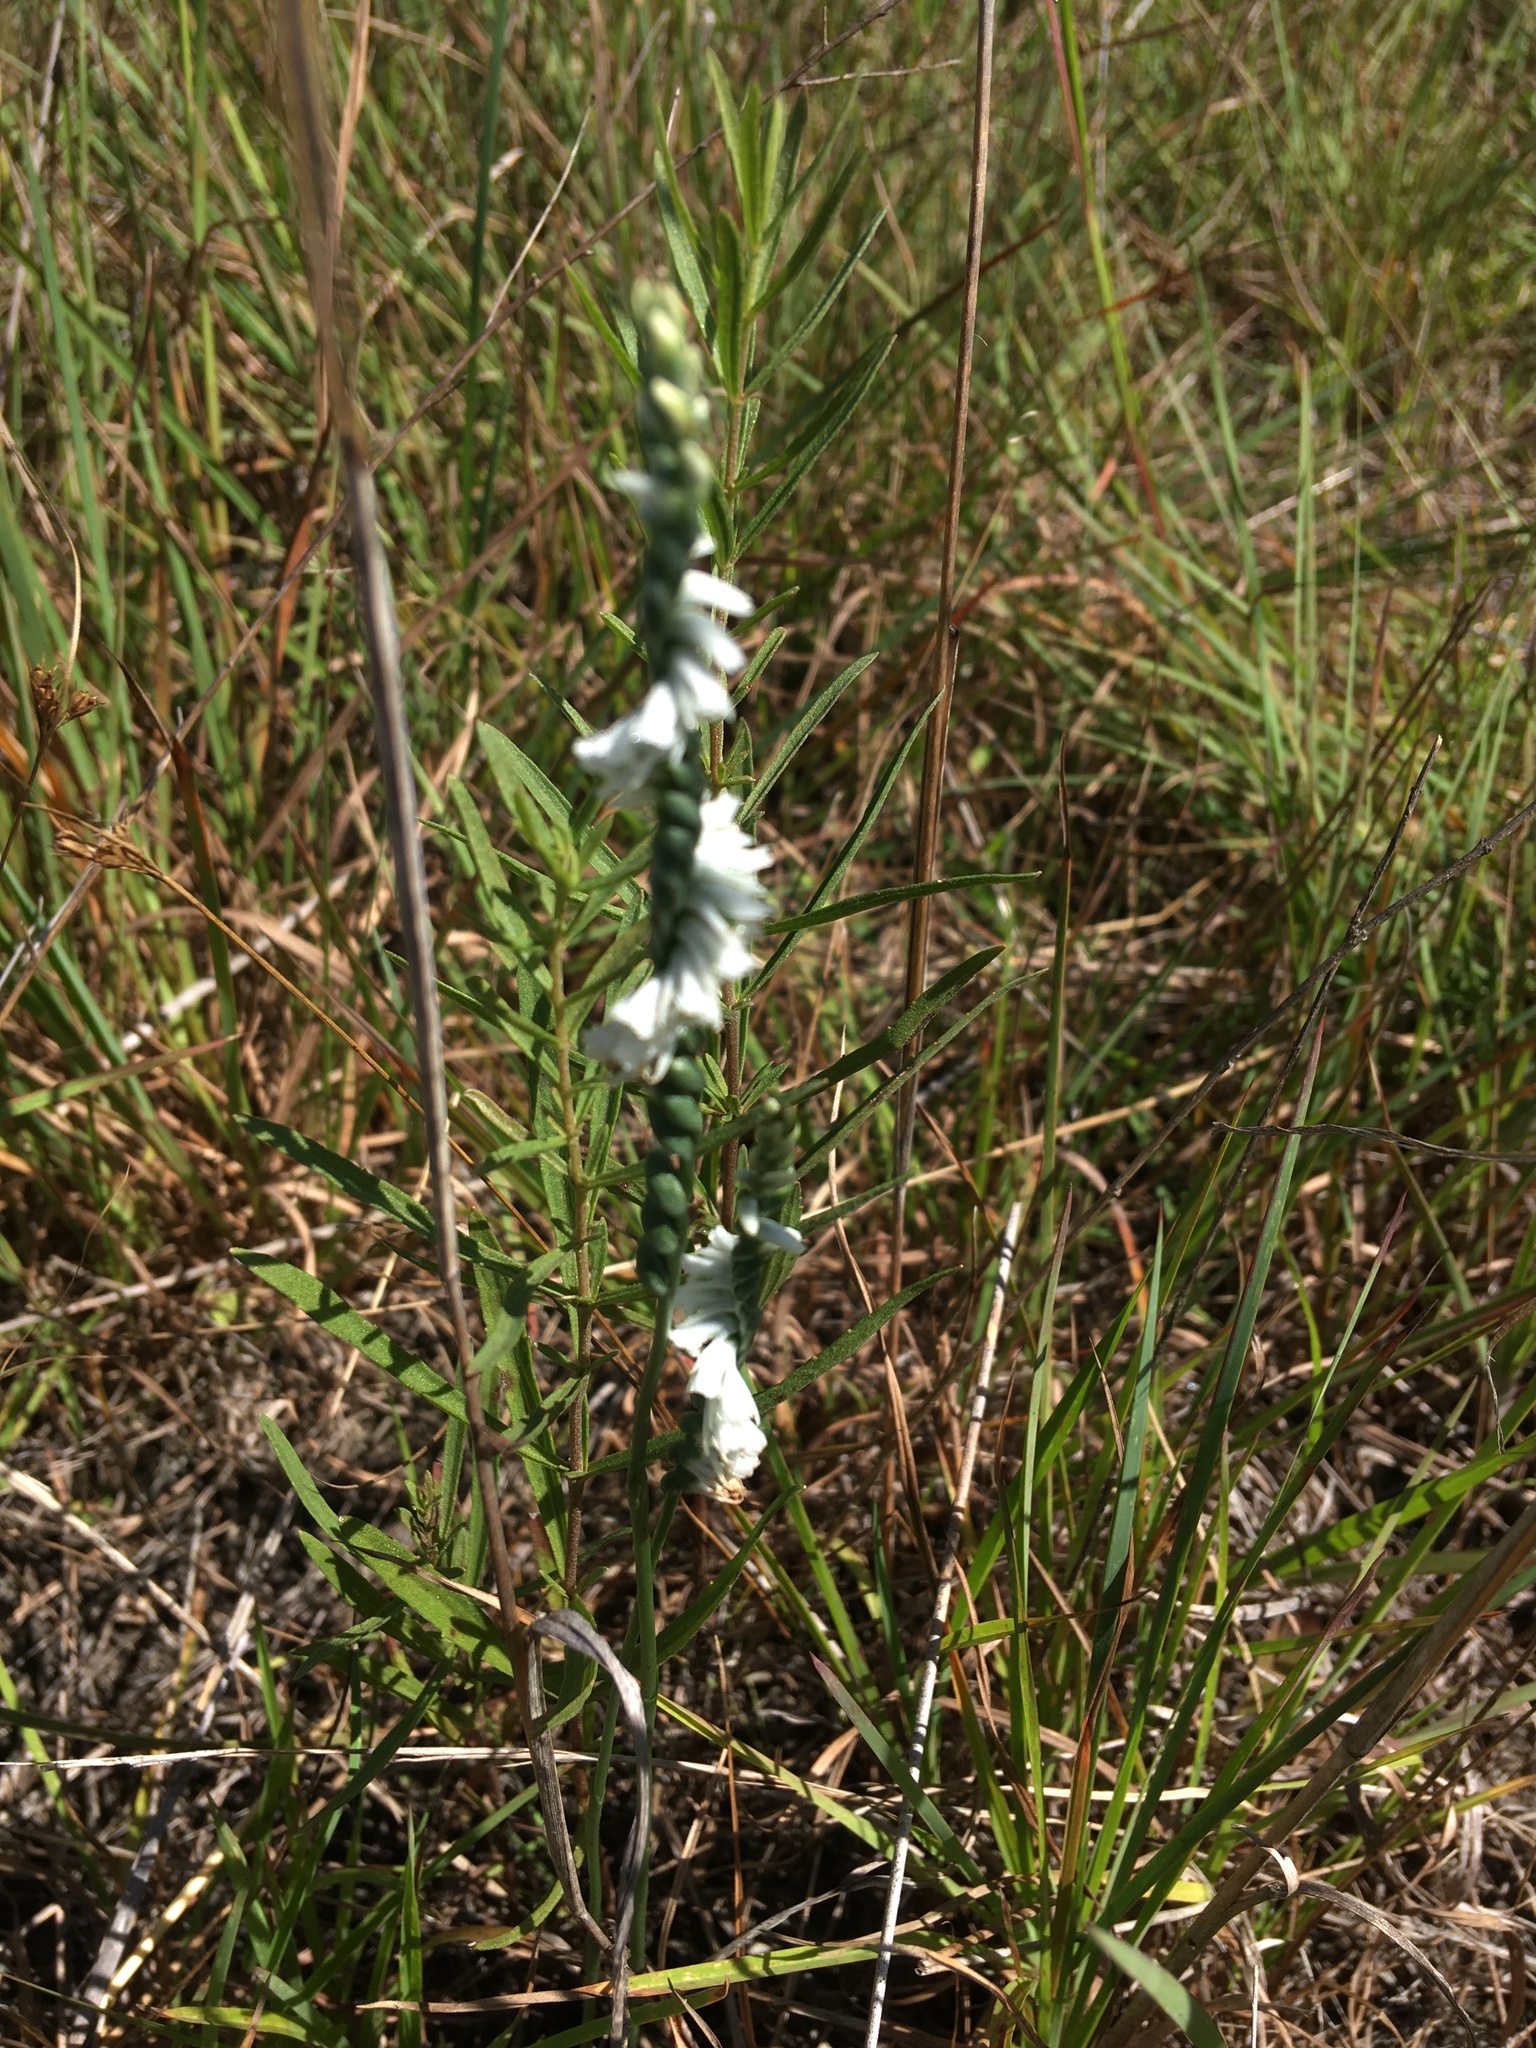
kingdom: Plantae
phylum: Tracheophyta
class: Liliopsida
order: Asparagales
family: Orchidaceae
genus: Spiranthes
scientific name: Spiranthes lacera
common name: Northern slender ladies'-tresses
